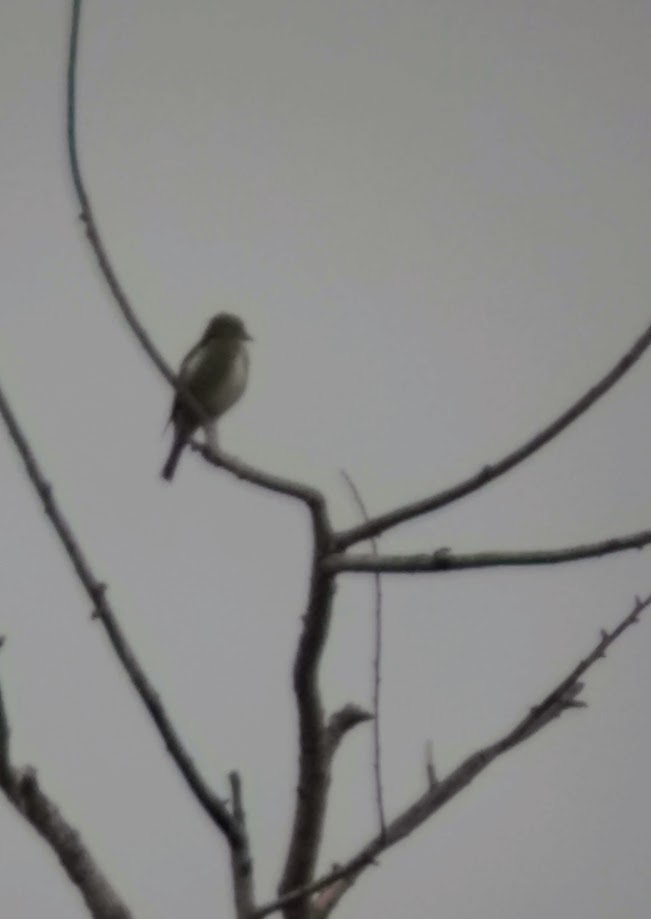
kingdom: Animalia
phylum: Chordata
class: Aves
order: Passeriformes
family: Tyrannidae
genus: Contopus
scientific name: Contopus cooperi
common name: Olive-sided flycatcher
